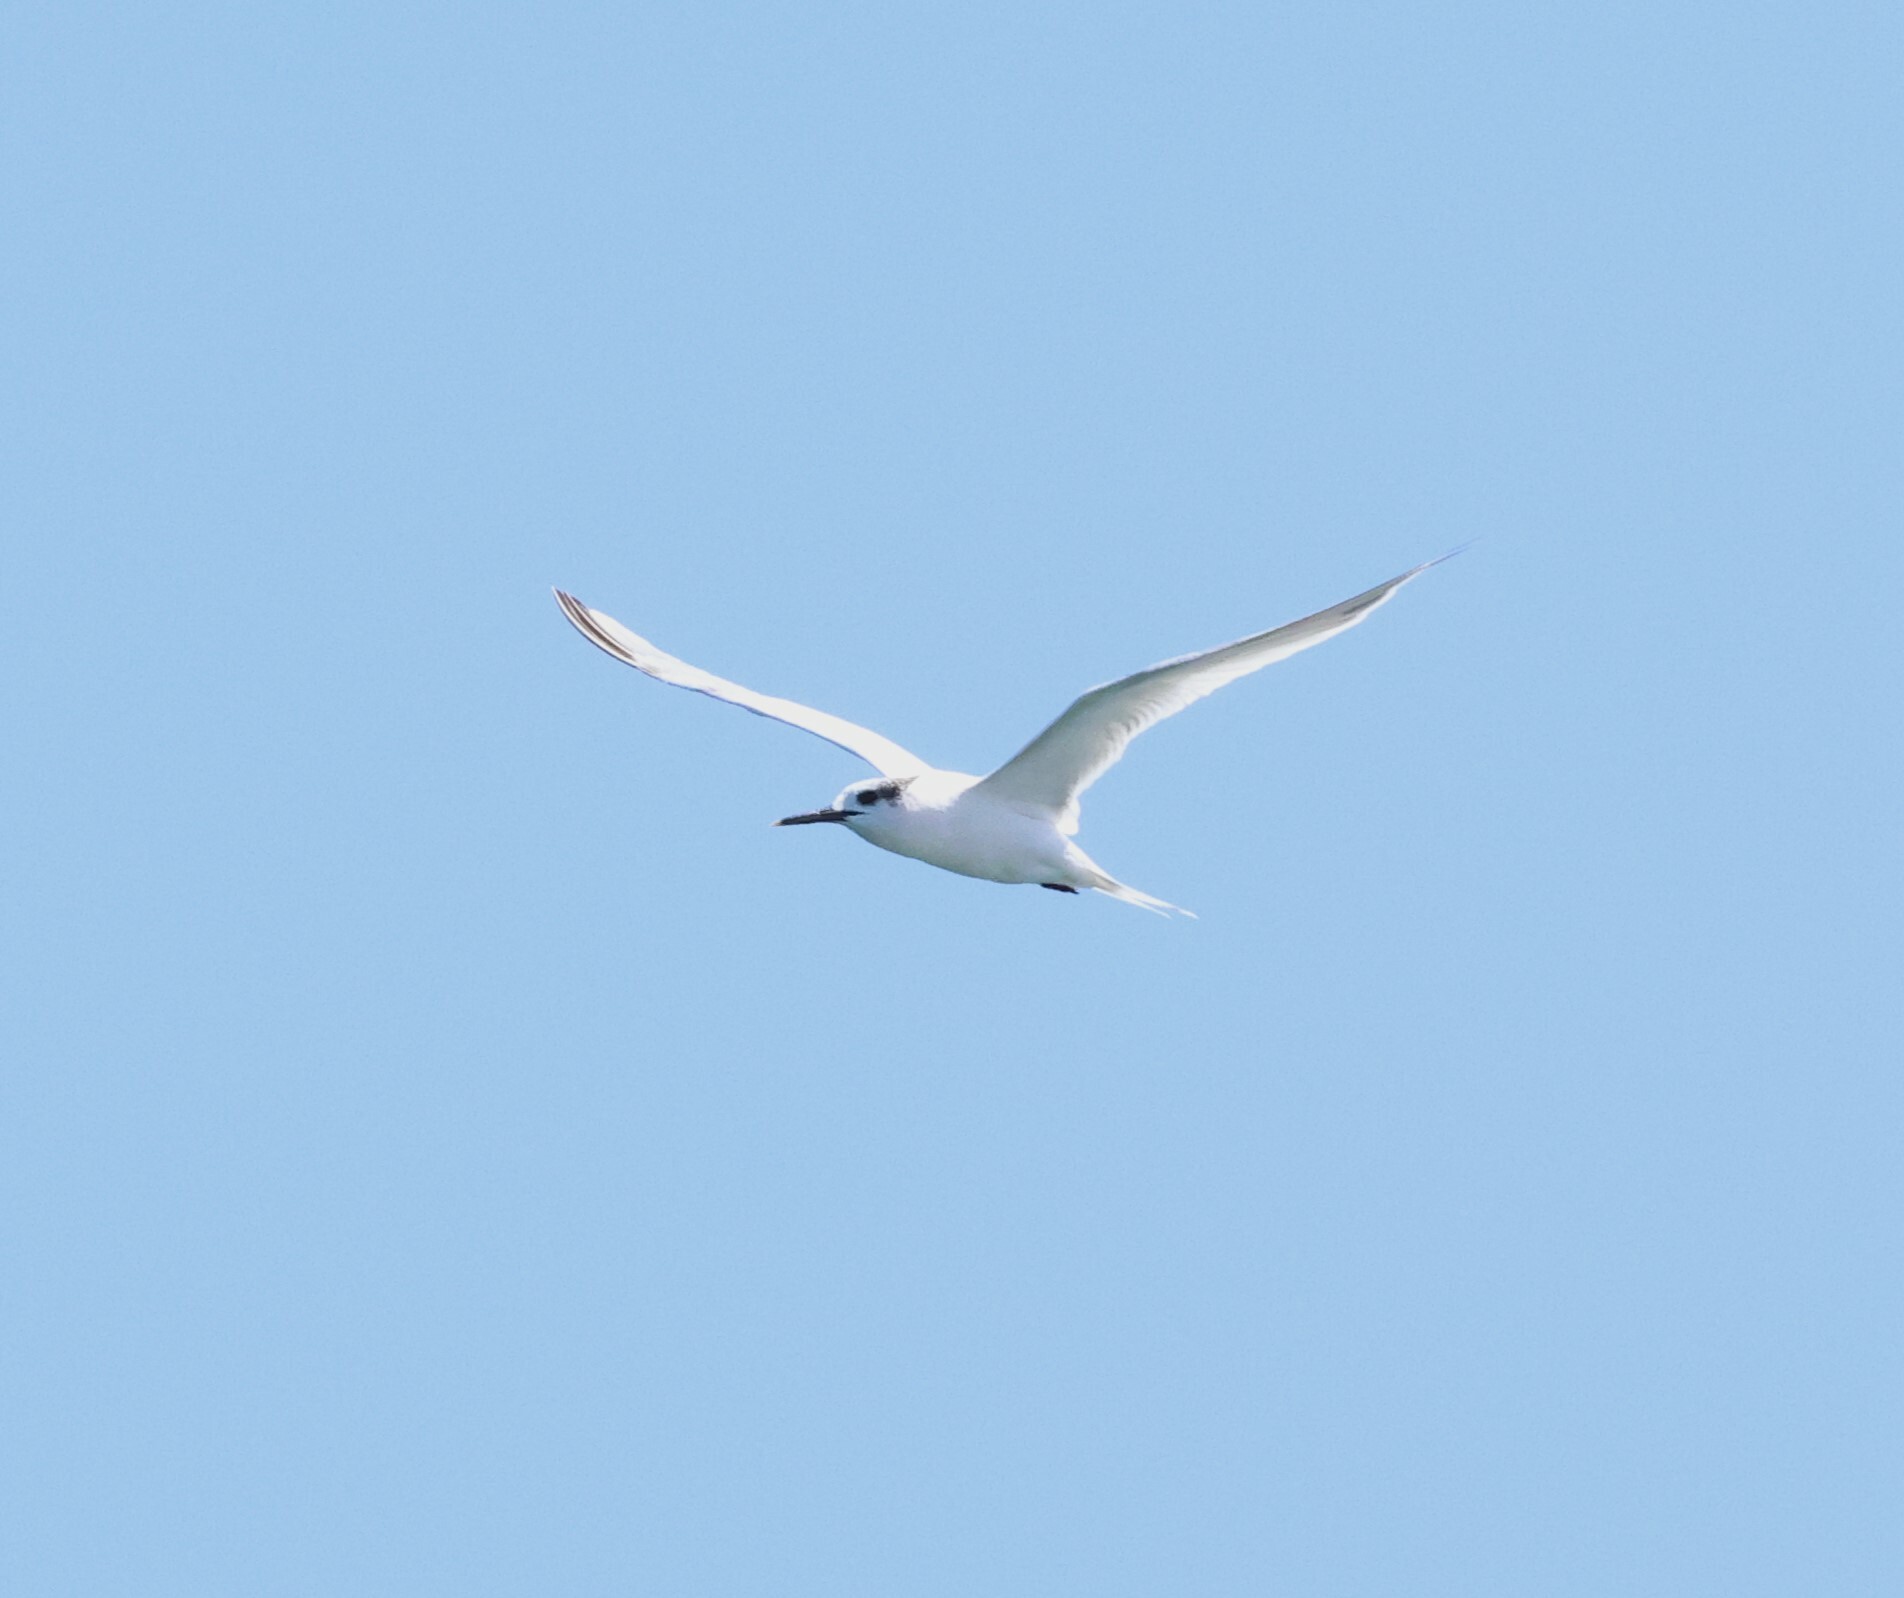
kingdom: Animalia
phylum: Chordata
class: Aves
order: Charadriiformes
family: Laridae
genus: Thalasseus
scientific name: Thalasseus sandvicensis
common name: Sandwich tern
